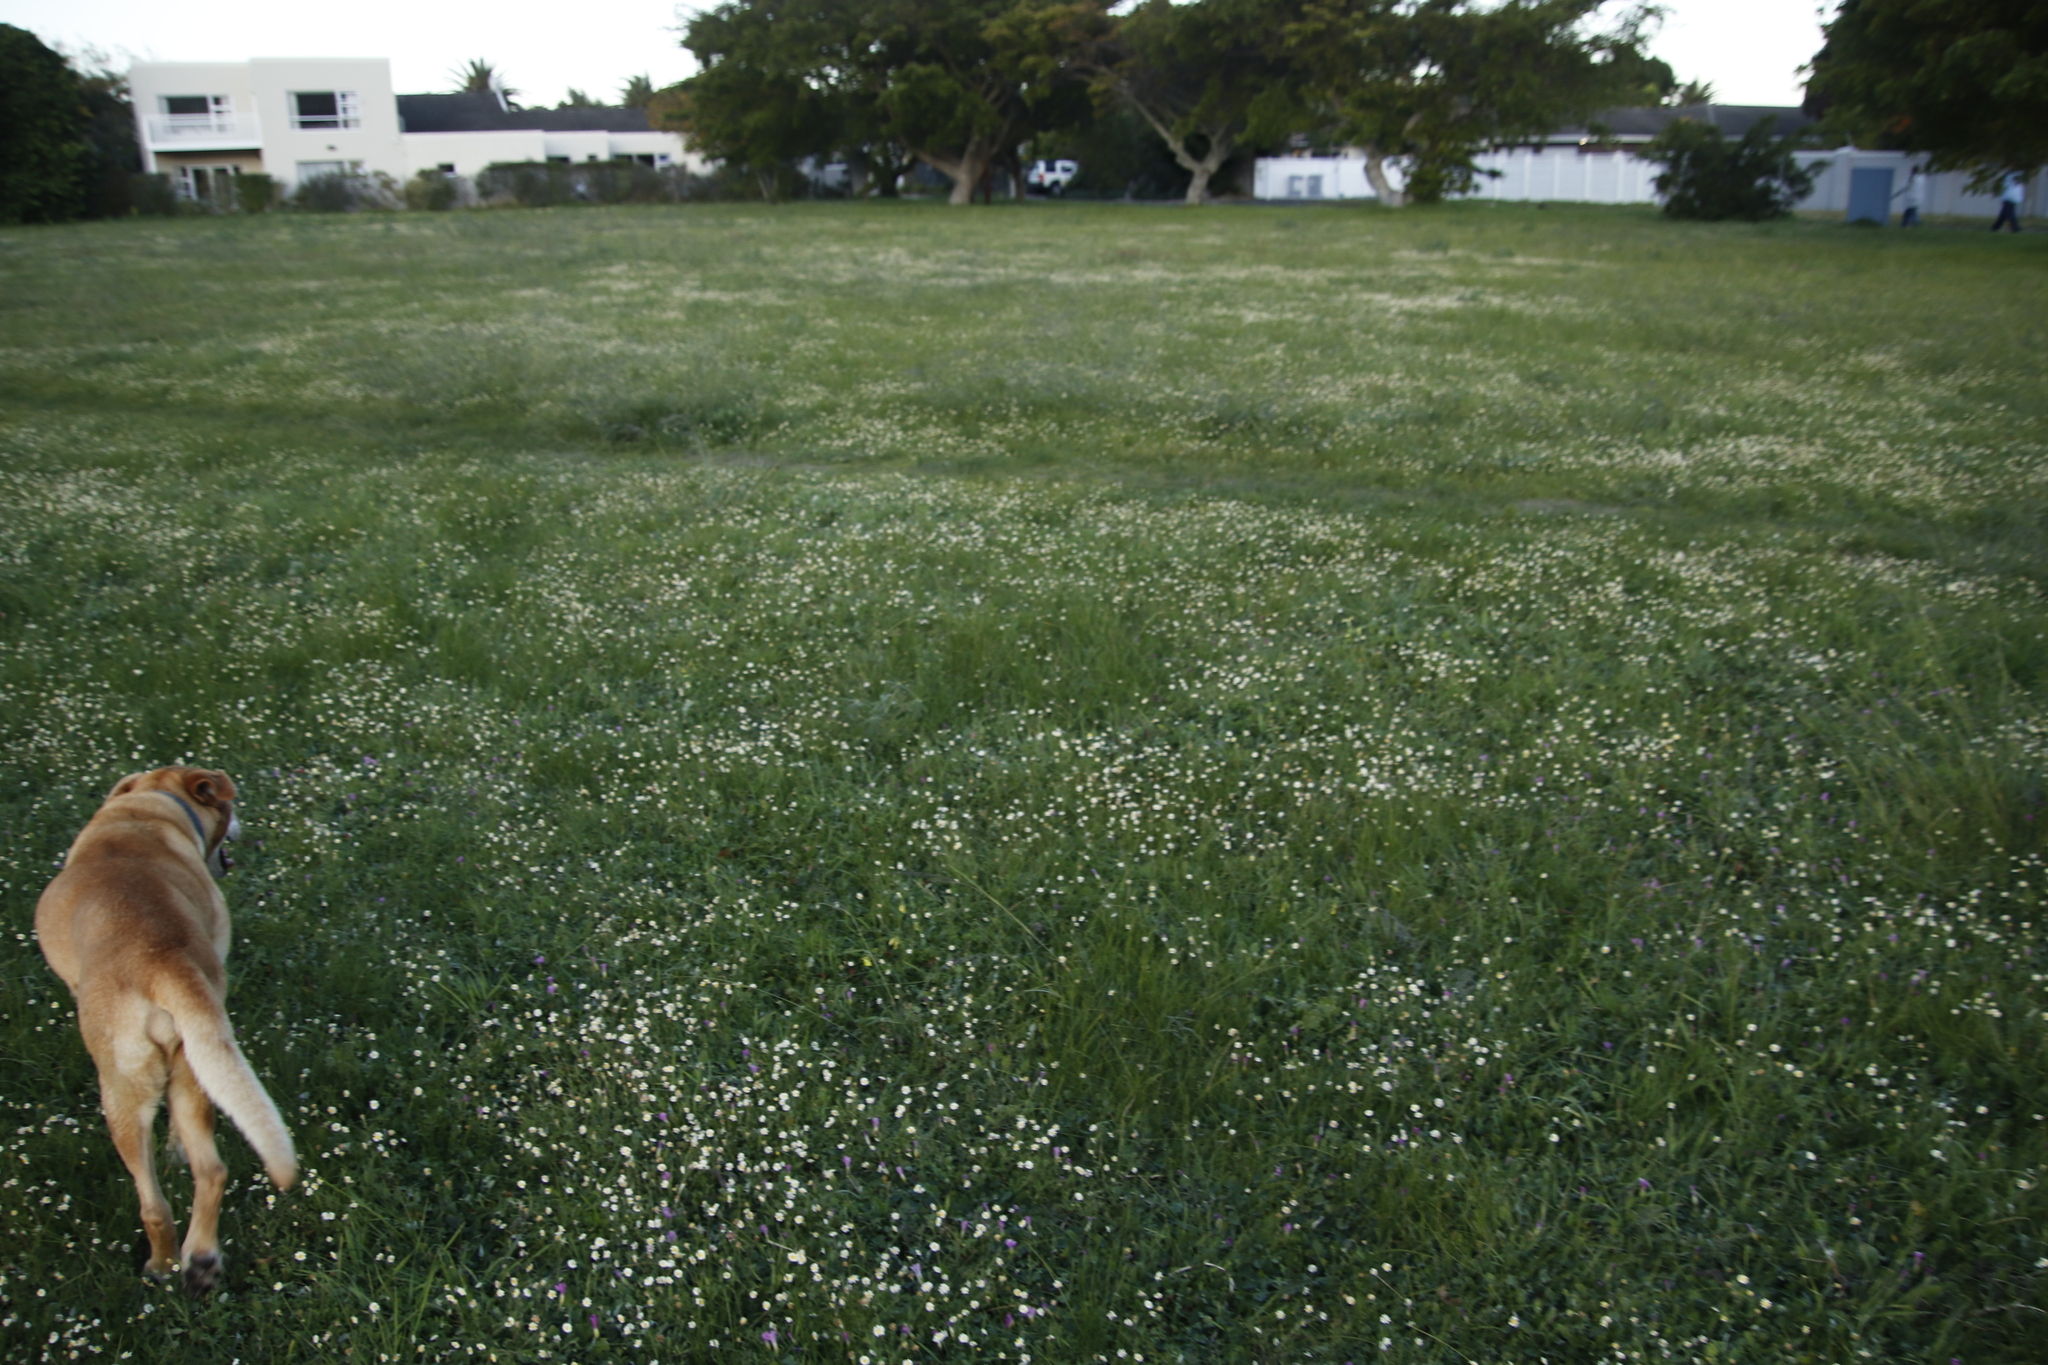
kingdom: Plantae
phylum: Tracheophyta
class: Magnoliopsida
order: Asterales
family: Asteraceae
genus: Cotula
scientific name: Cotula turbinata
